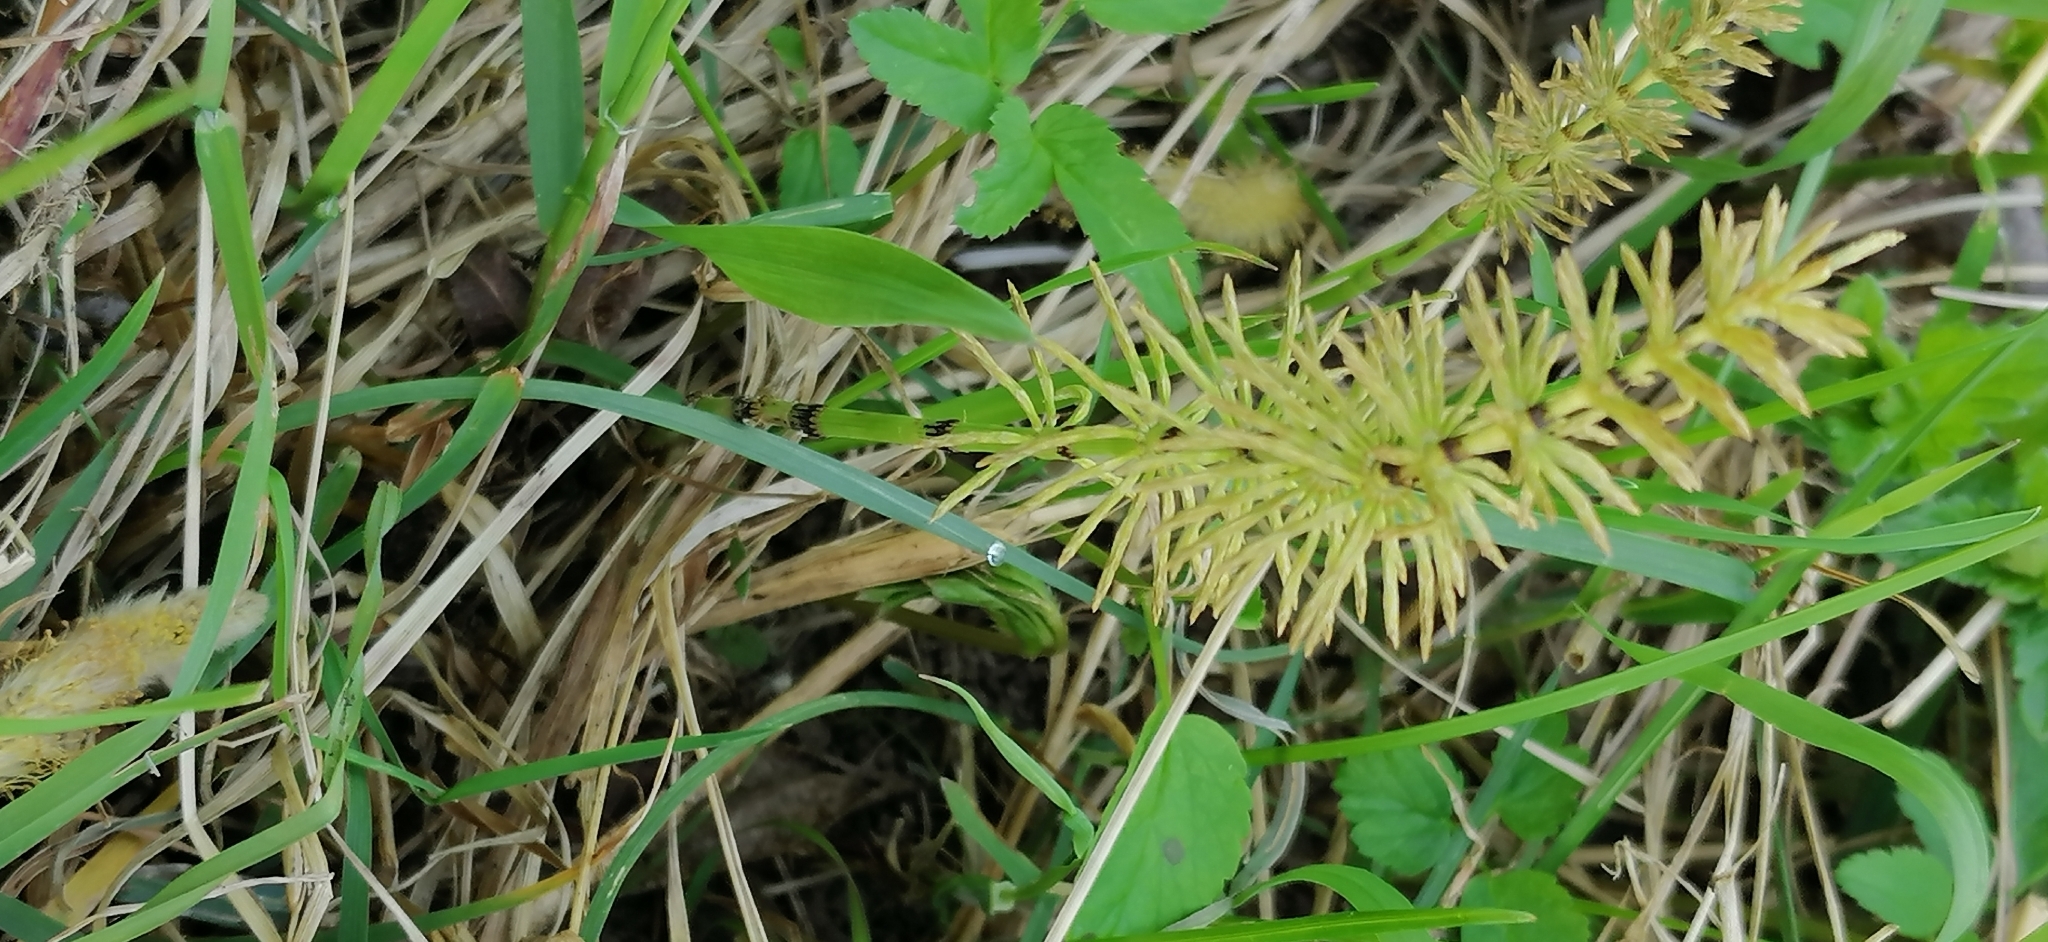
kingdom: Plantae
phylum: Tracheophyta
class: Polypodiopsida
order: Equisetales
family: Equisetaceae
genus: Equisetum
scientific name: Equisetum pratense
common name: Meadow horsetail
